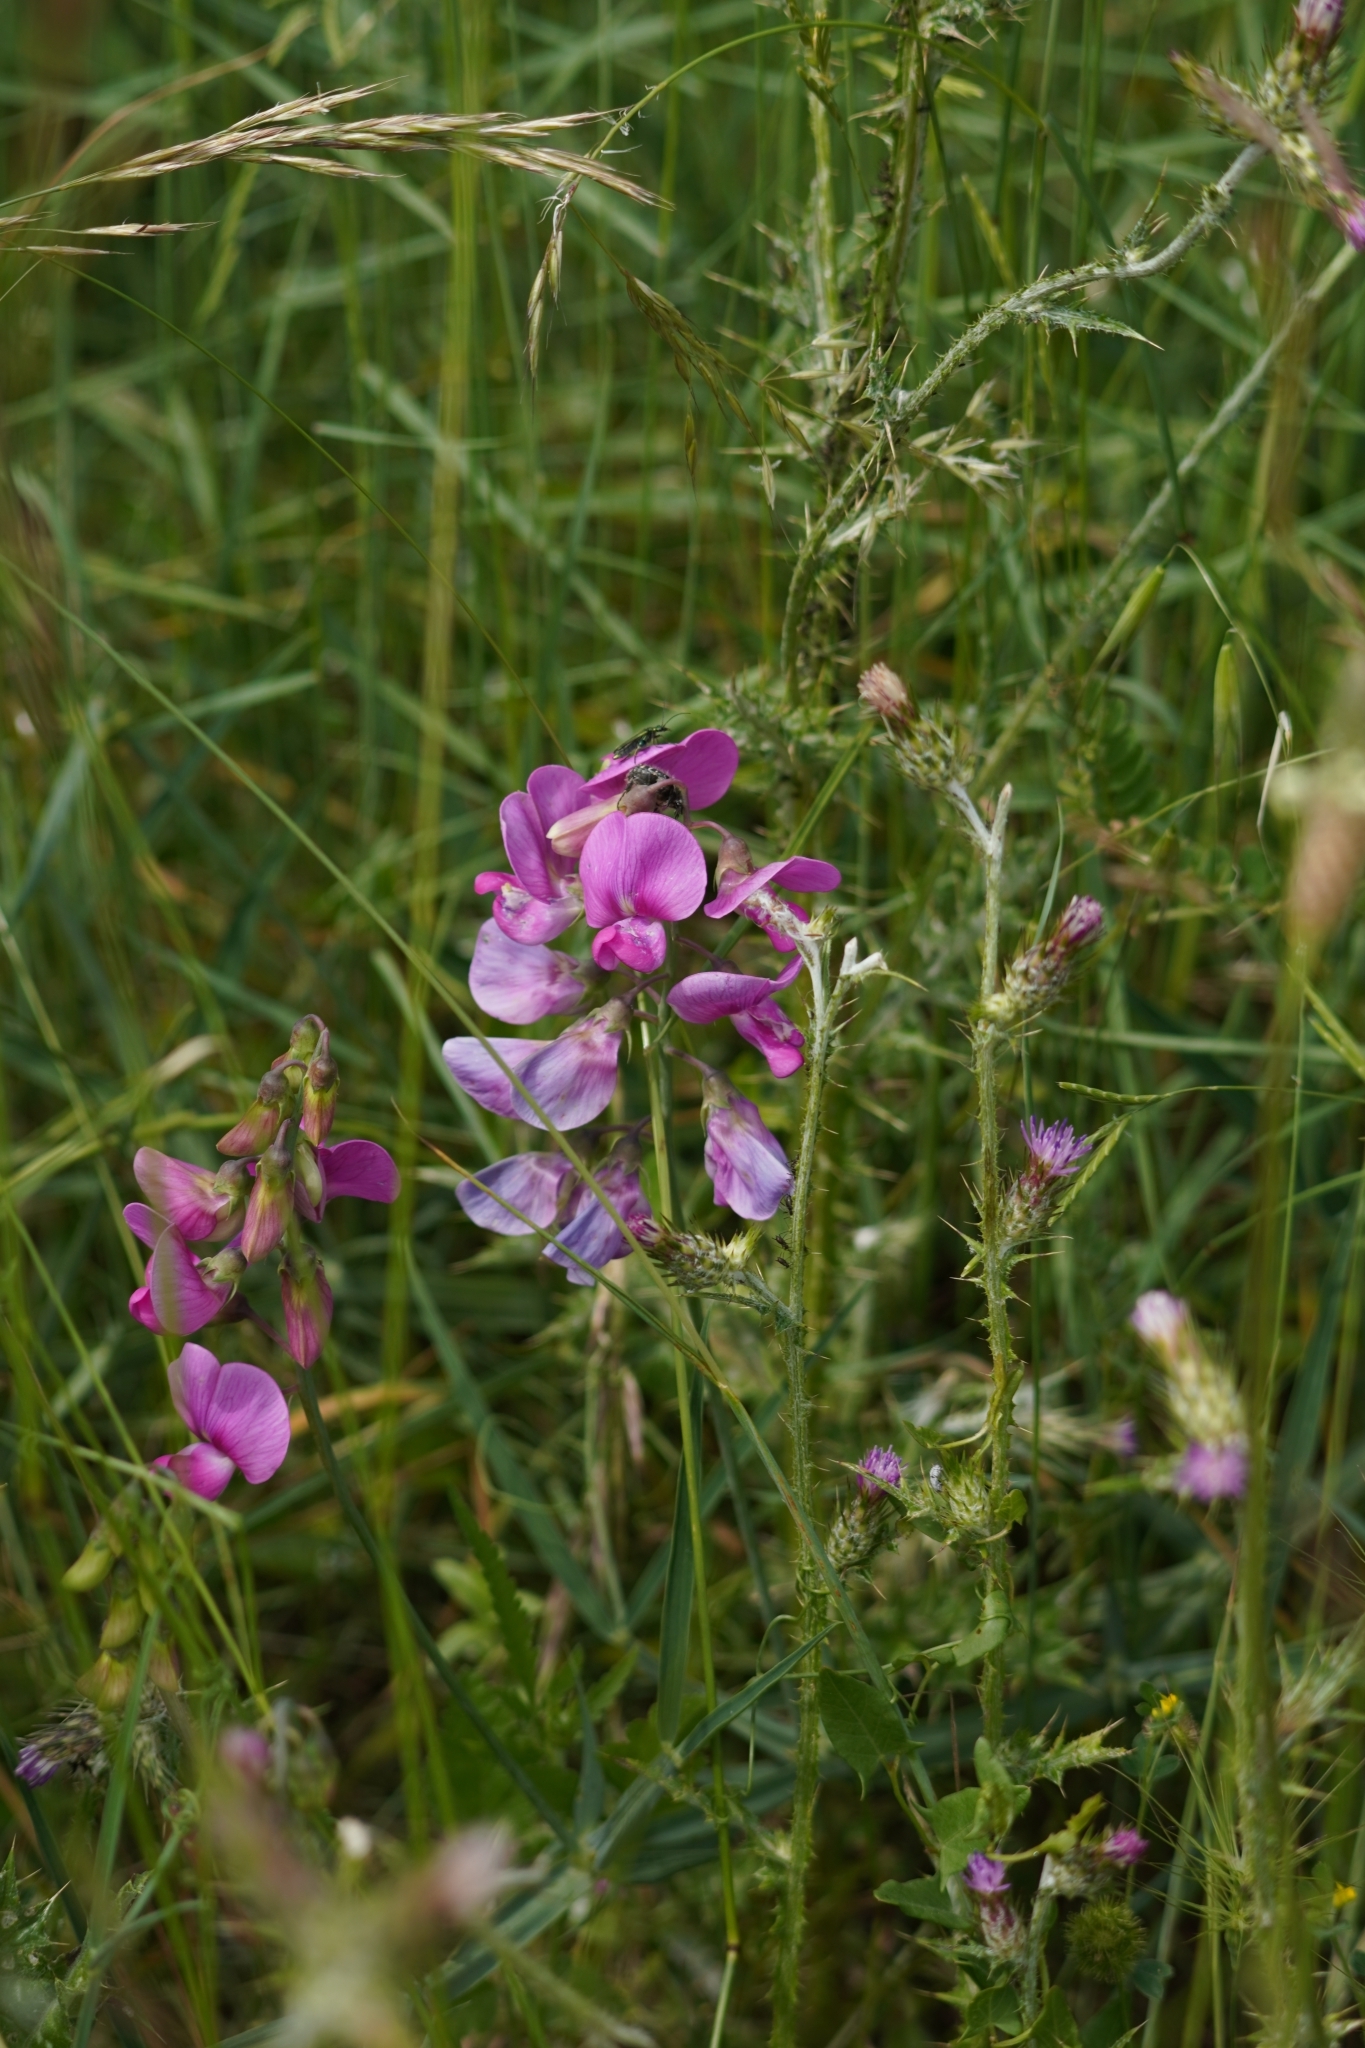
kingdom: Plantae
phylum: Tracheophyta
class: Magnoliopsida
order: Fabales
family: Fabaceae
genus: Lathyrus
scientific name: Lathyrus latifolius
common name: Perennial pea
